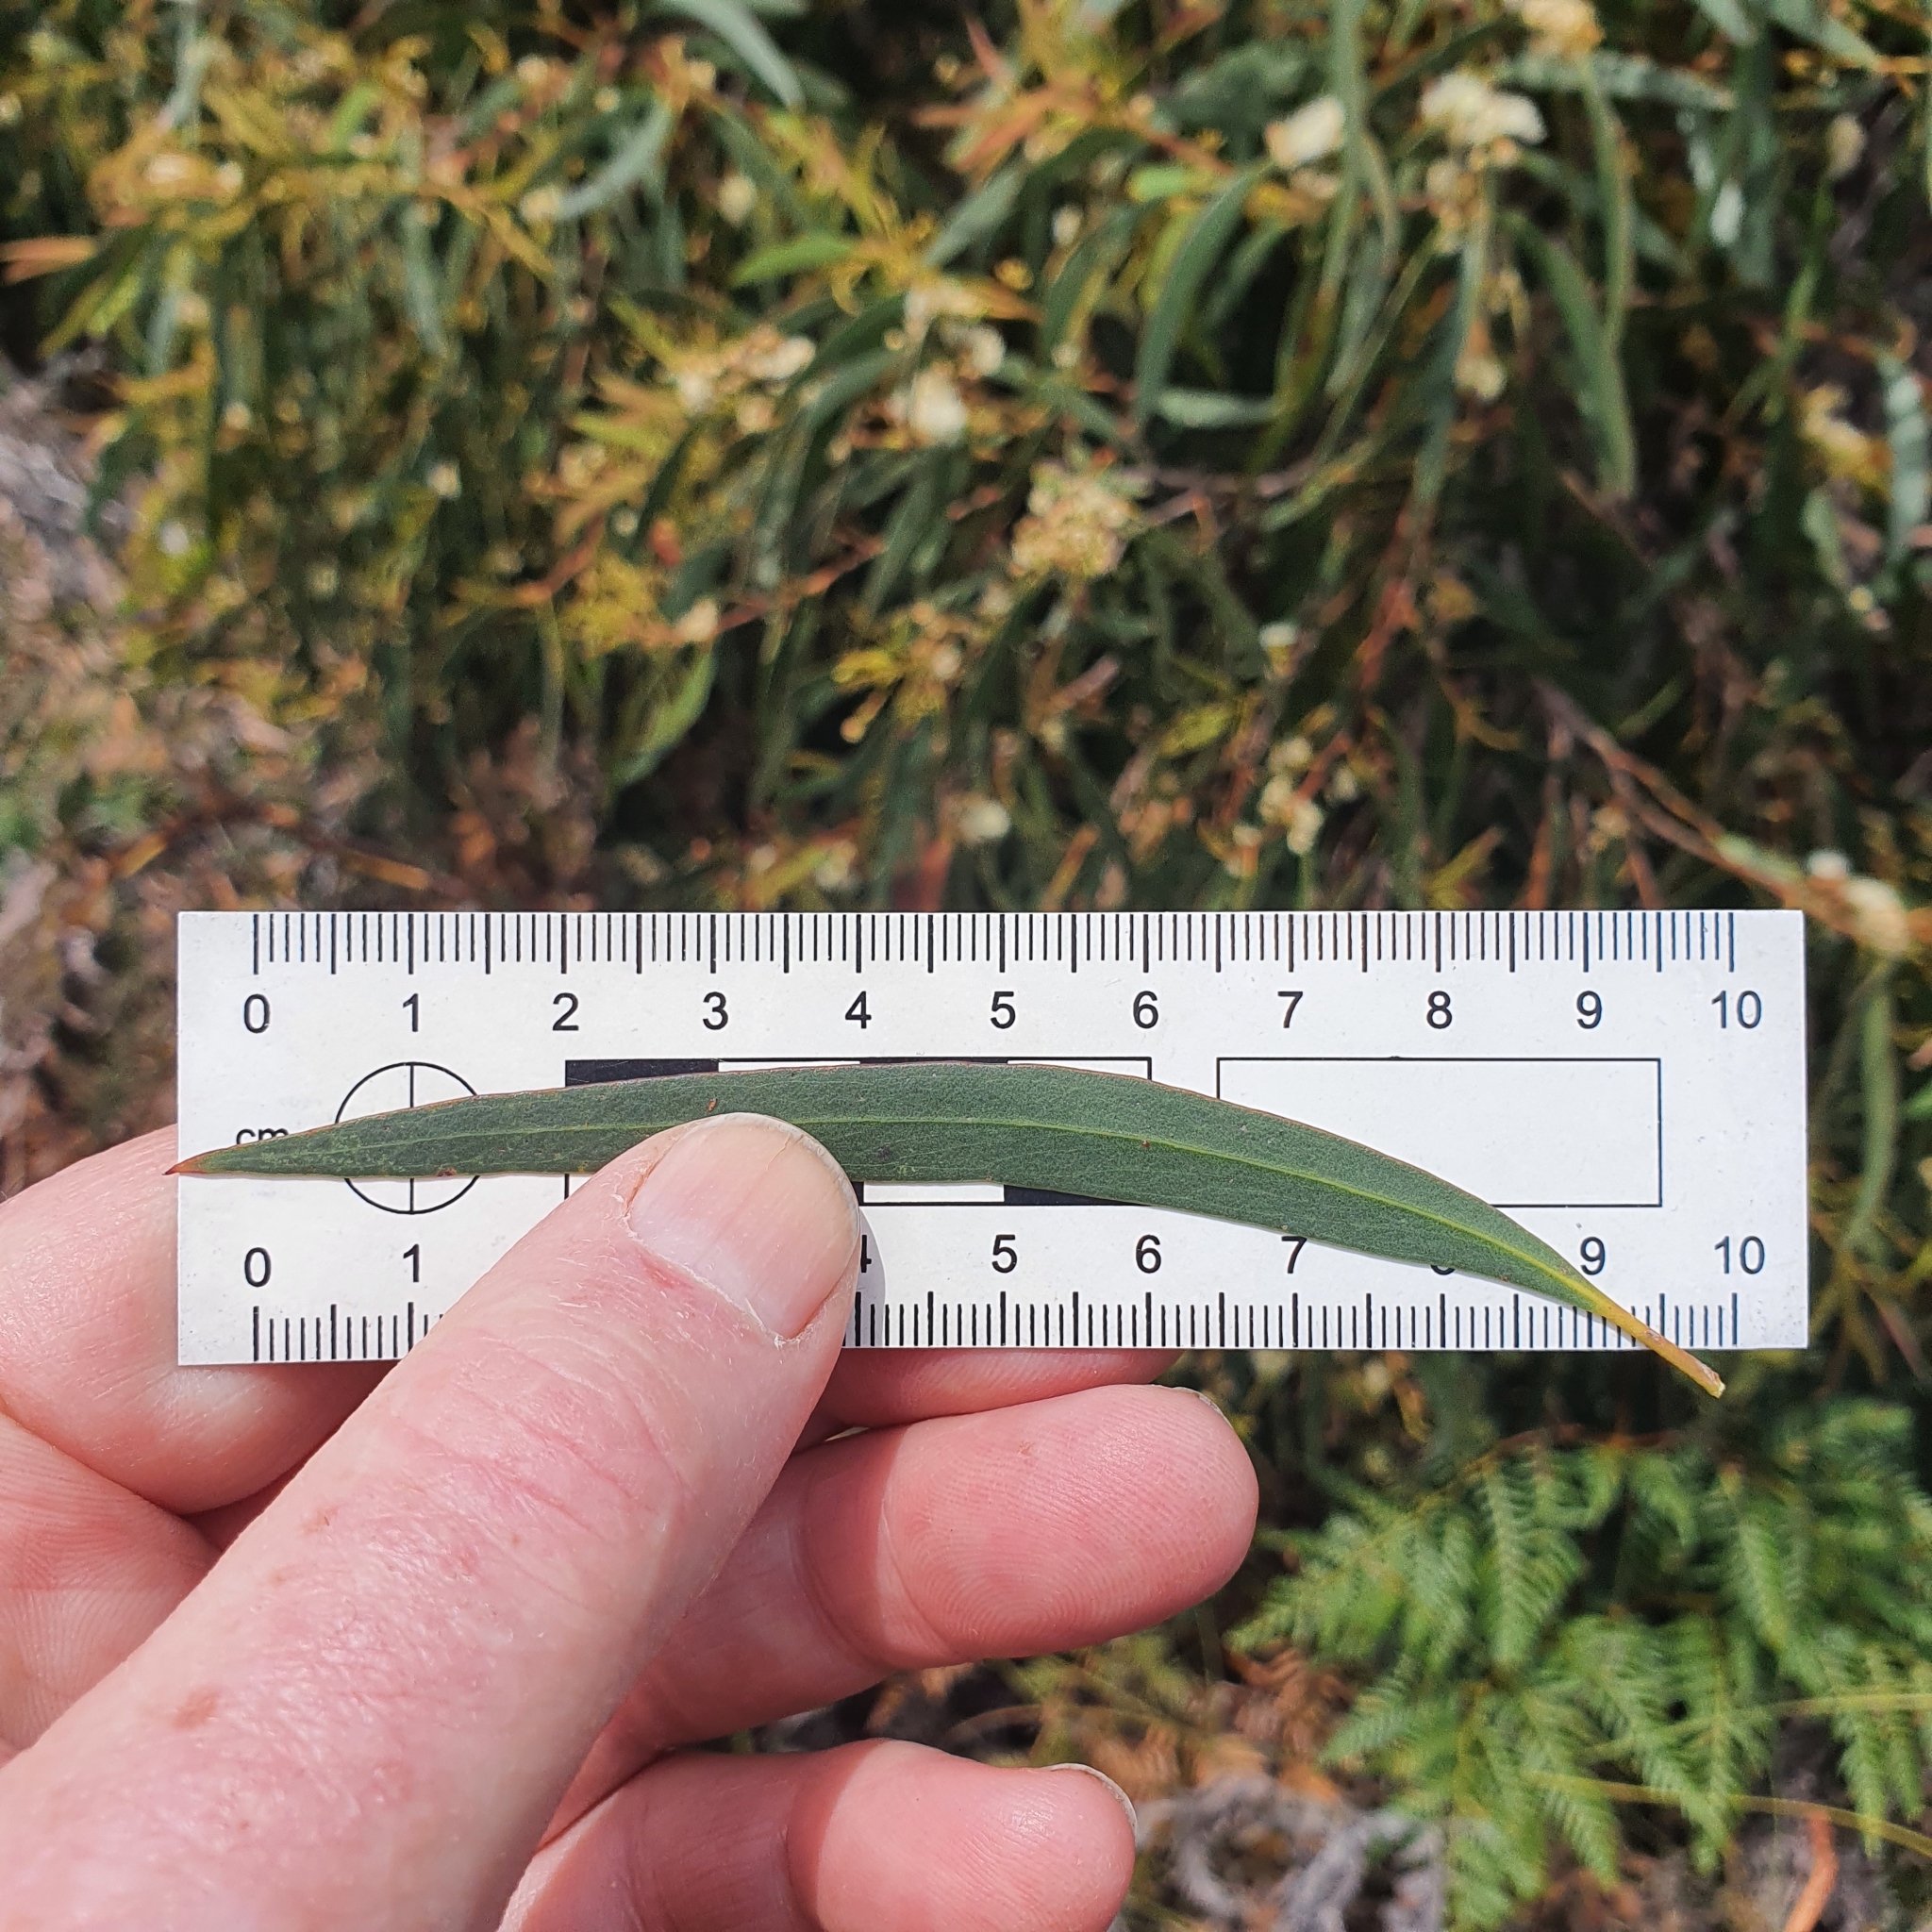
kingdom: Plantae
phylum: Tracheophyta
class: Magnoliopsida
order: Myrtales
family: Myrtaceae
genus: Eucalyptus
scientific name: Eucalyptus amygdalina
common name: Black peppermint
